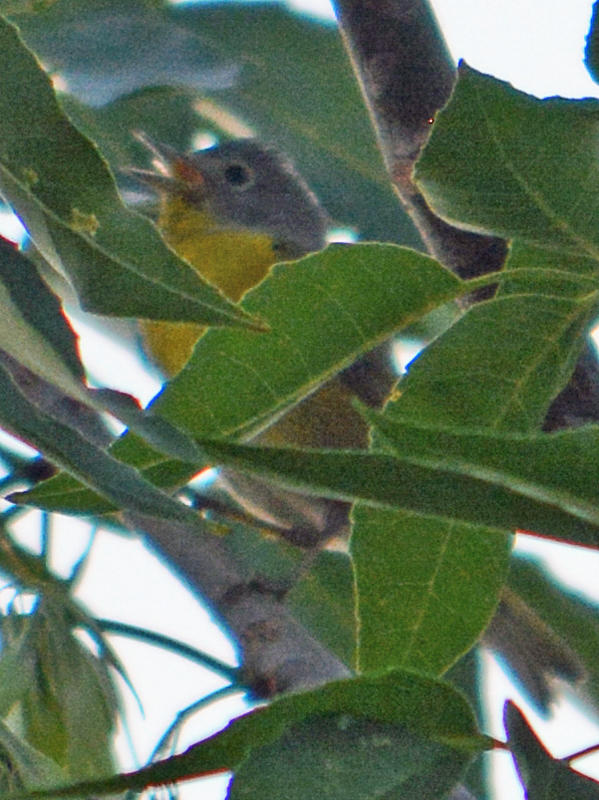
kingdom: Animalia
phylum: Chordata
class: Aves
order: Passeriformes
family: Parulidae
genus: Leiothlypis
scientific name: Leiothlypis ruficapilla
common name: Nashville warbler
